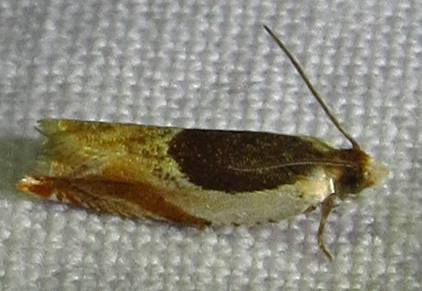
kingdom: Animalia
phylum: Arthropoda
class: Insecta
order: Lepidoptera
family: Tortricidae
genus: Ancylis
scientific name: Ancylis burgessiana
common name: Oak leaffolder moth
